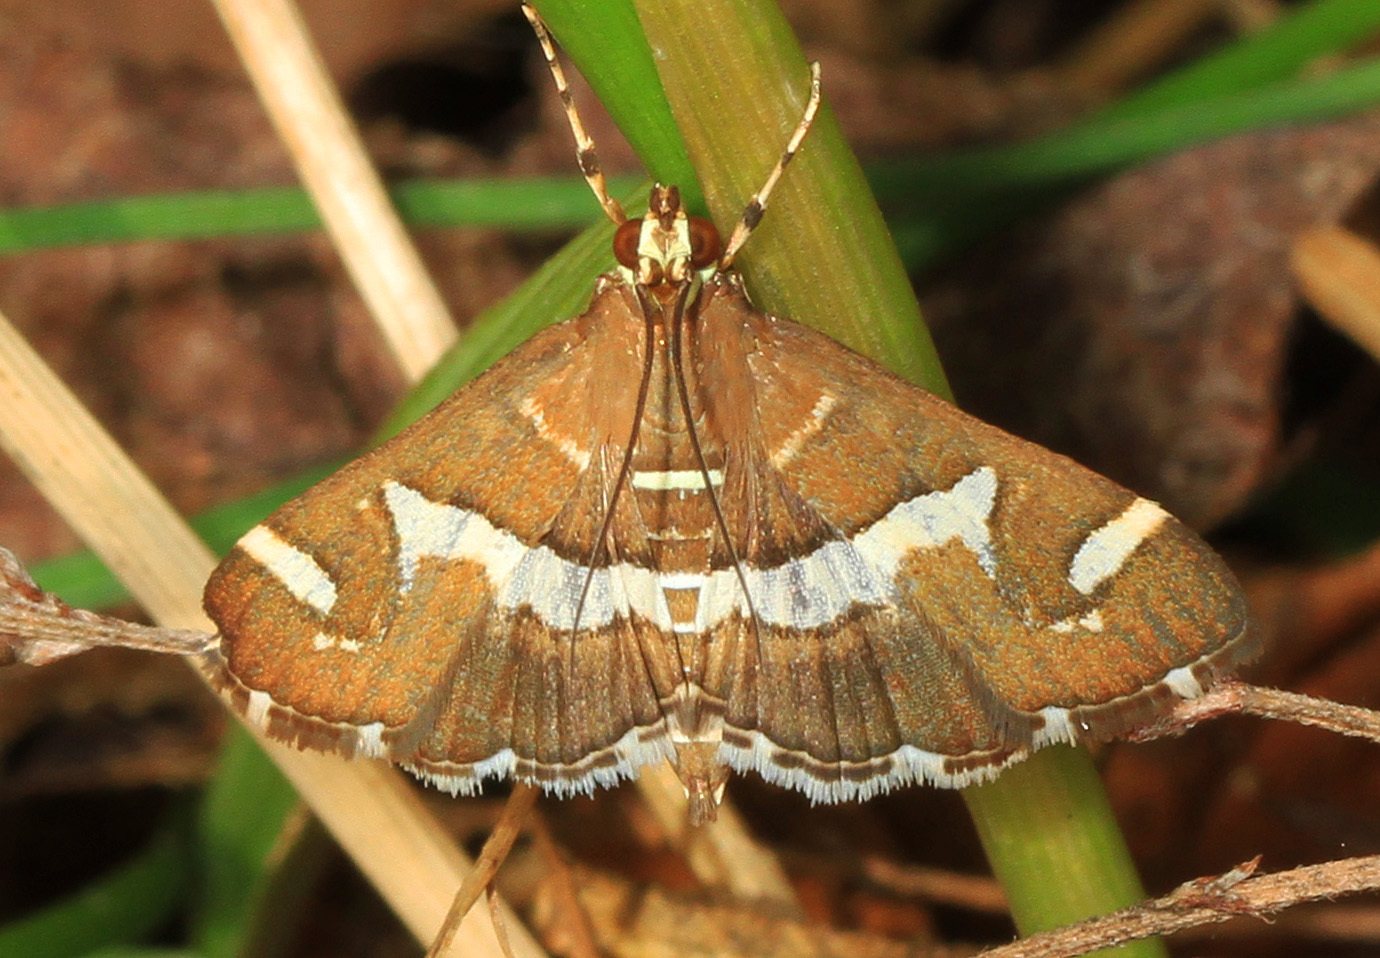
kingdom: Animalia
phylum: Arthropoda
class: Insecta
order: Lepidoptera
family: Crambidae
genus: Spoladea
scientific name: Spoladea recurvalis
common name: Beet webworm moth
